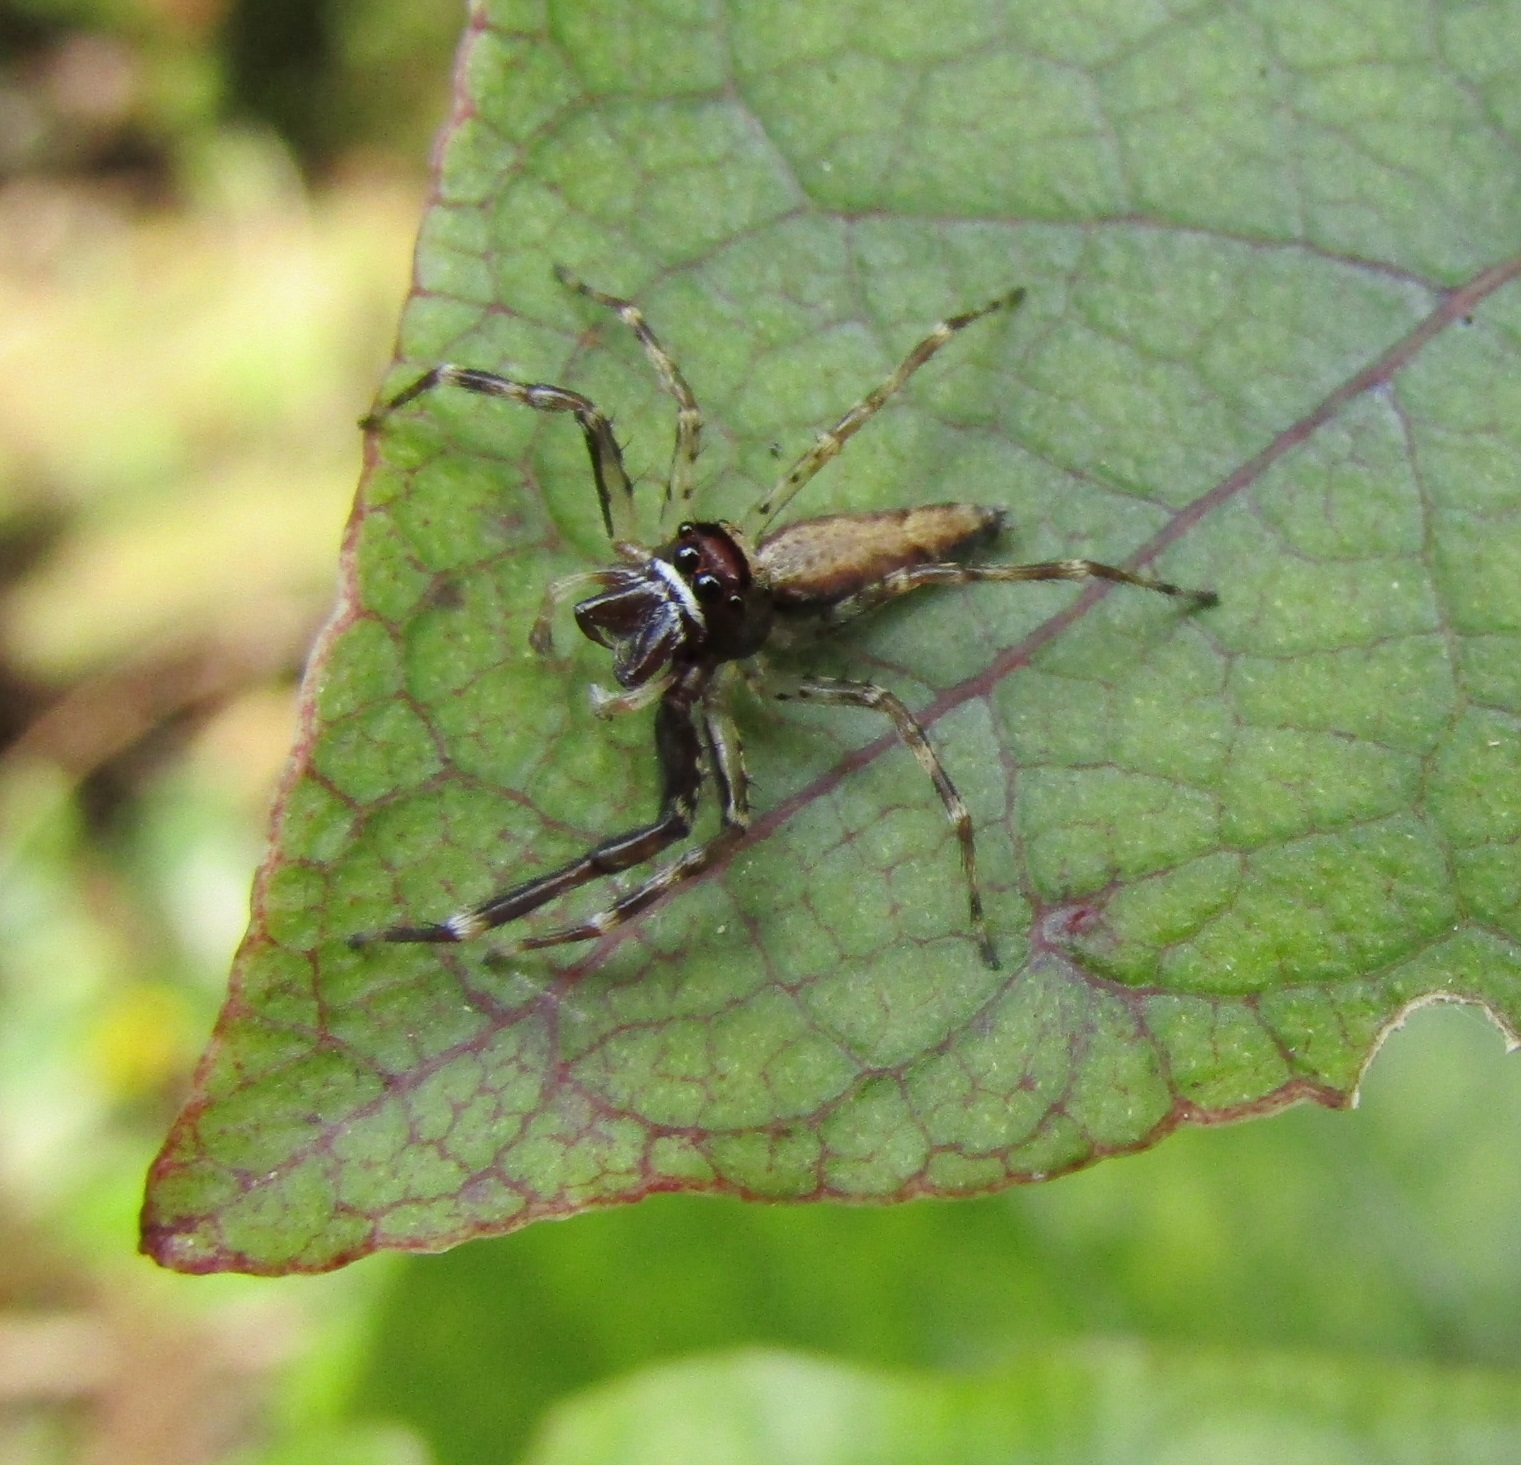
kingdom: Animalia
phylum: Arthropoda
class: Arachnida
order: Araneae
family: Salticidae
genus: Helpis
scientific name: Helpis minitabunda
